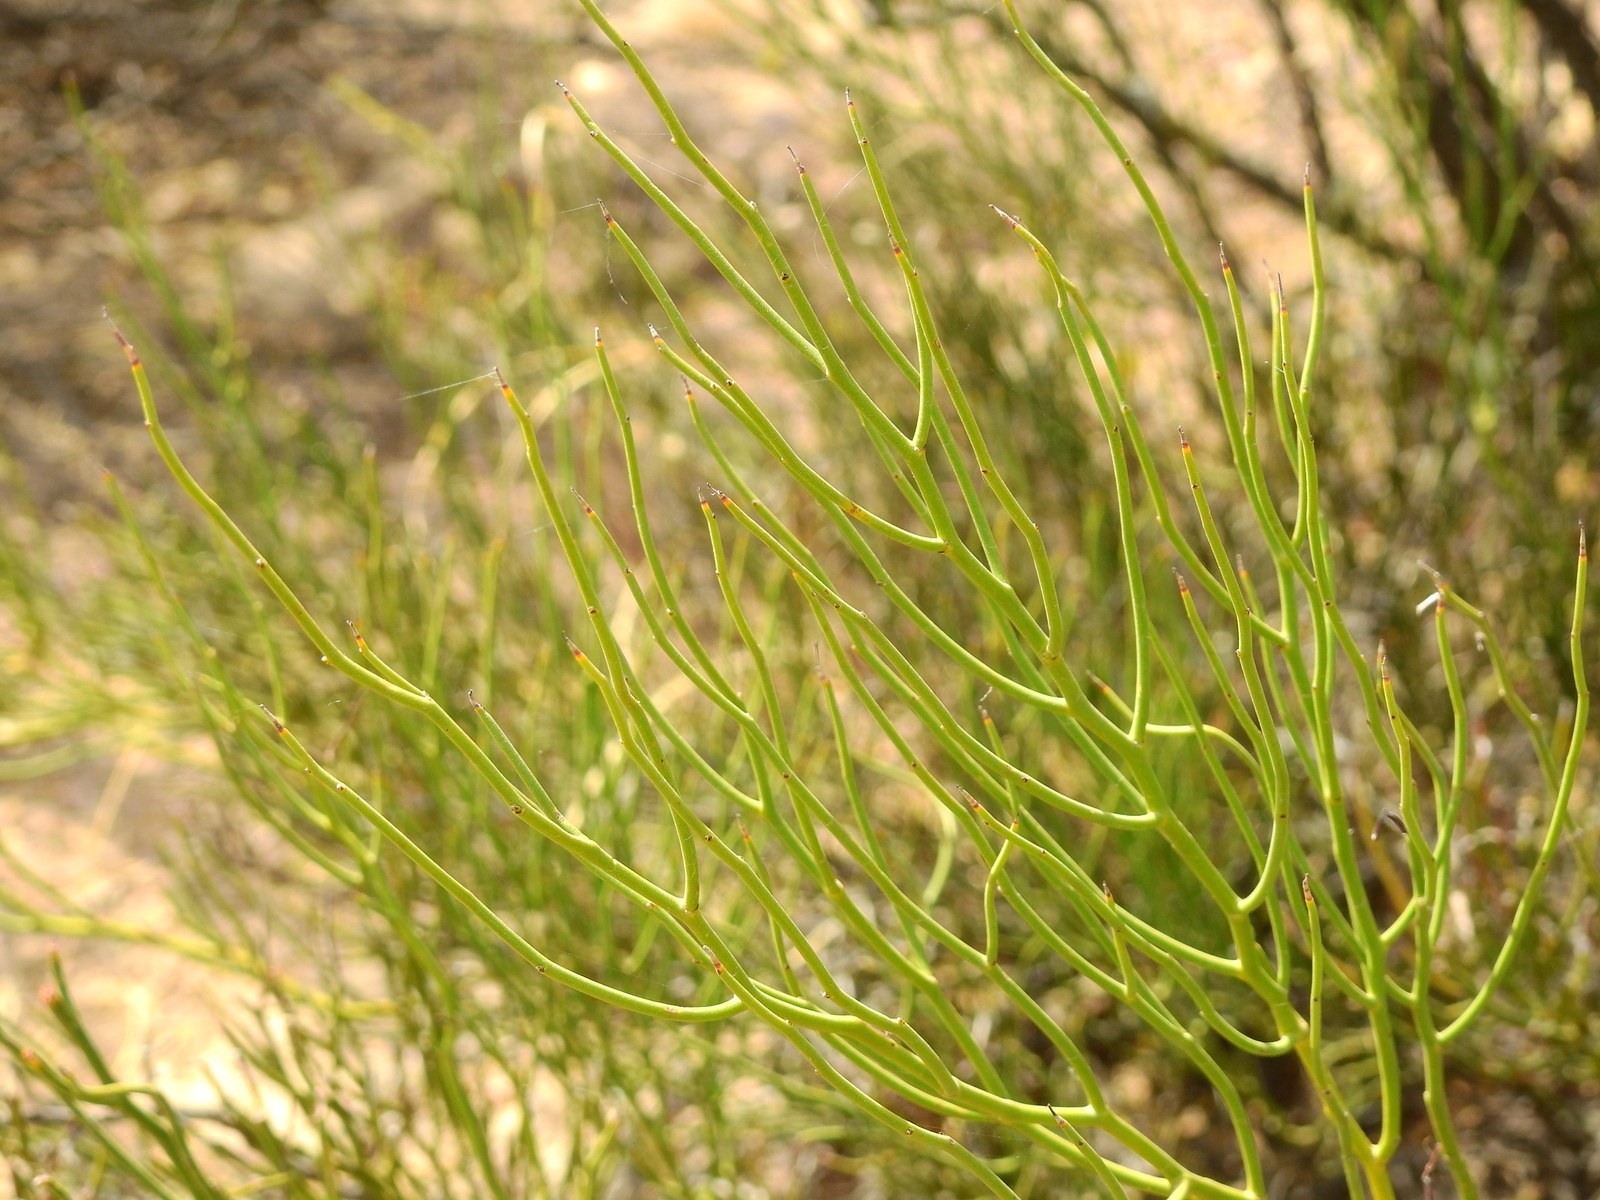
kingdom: Plantae
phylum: Tracheophyta
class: Magnoliopsida
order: Fabales
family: Fabaceae
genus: Senna
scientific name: Senna aphylla
